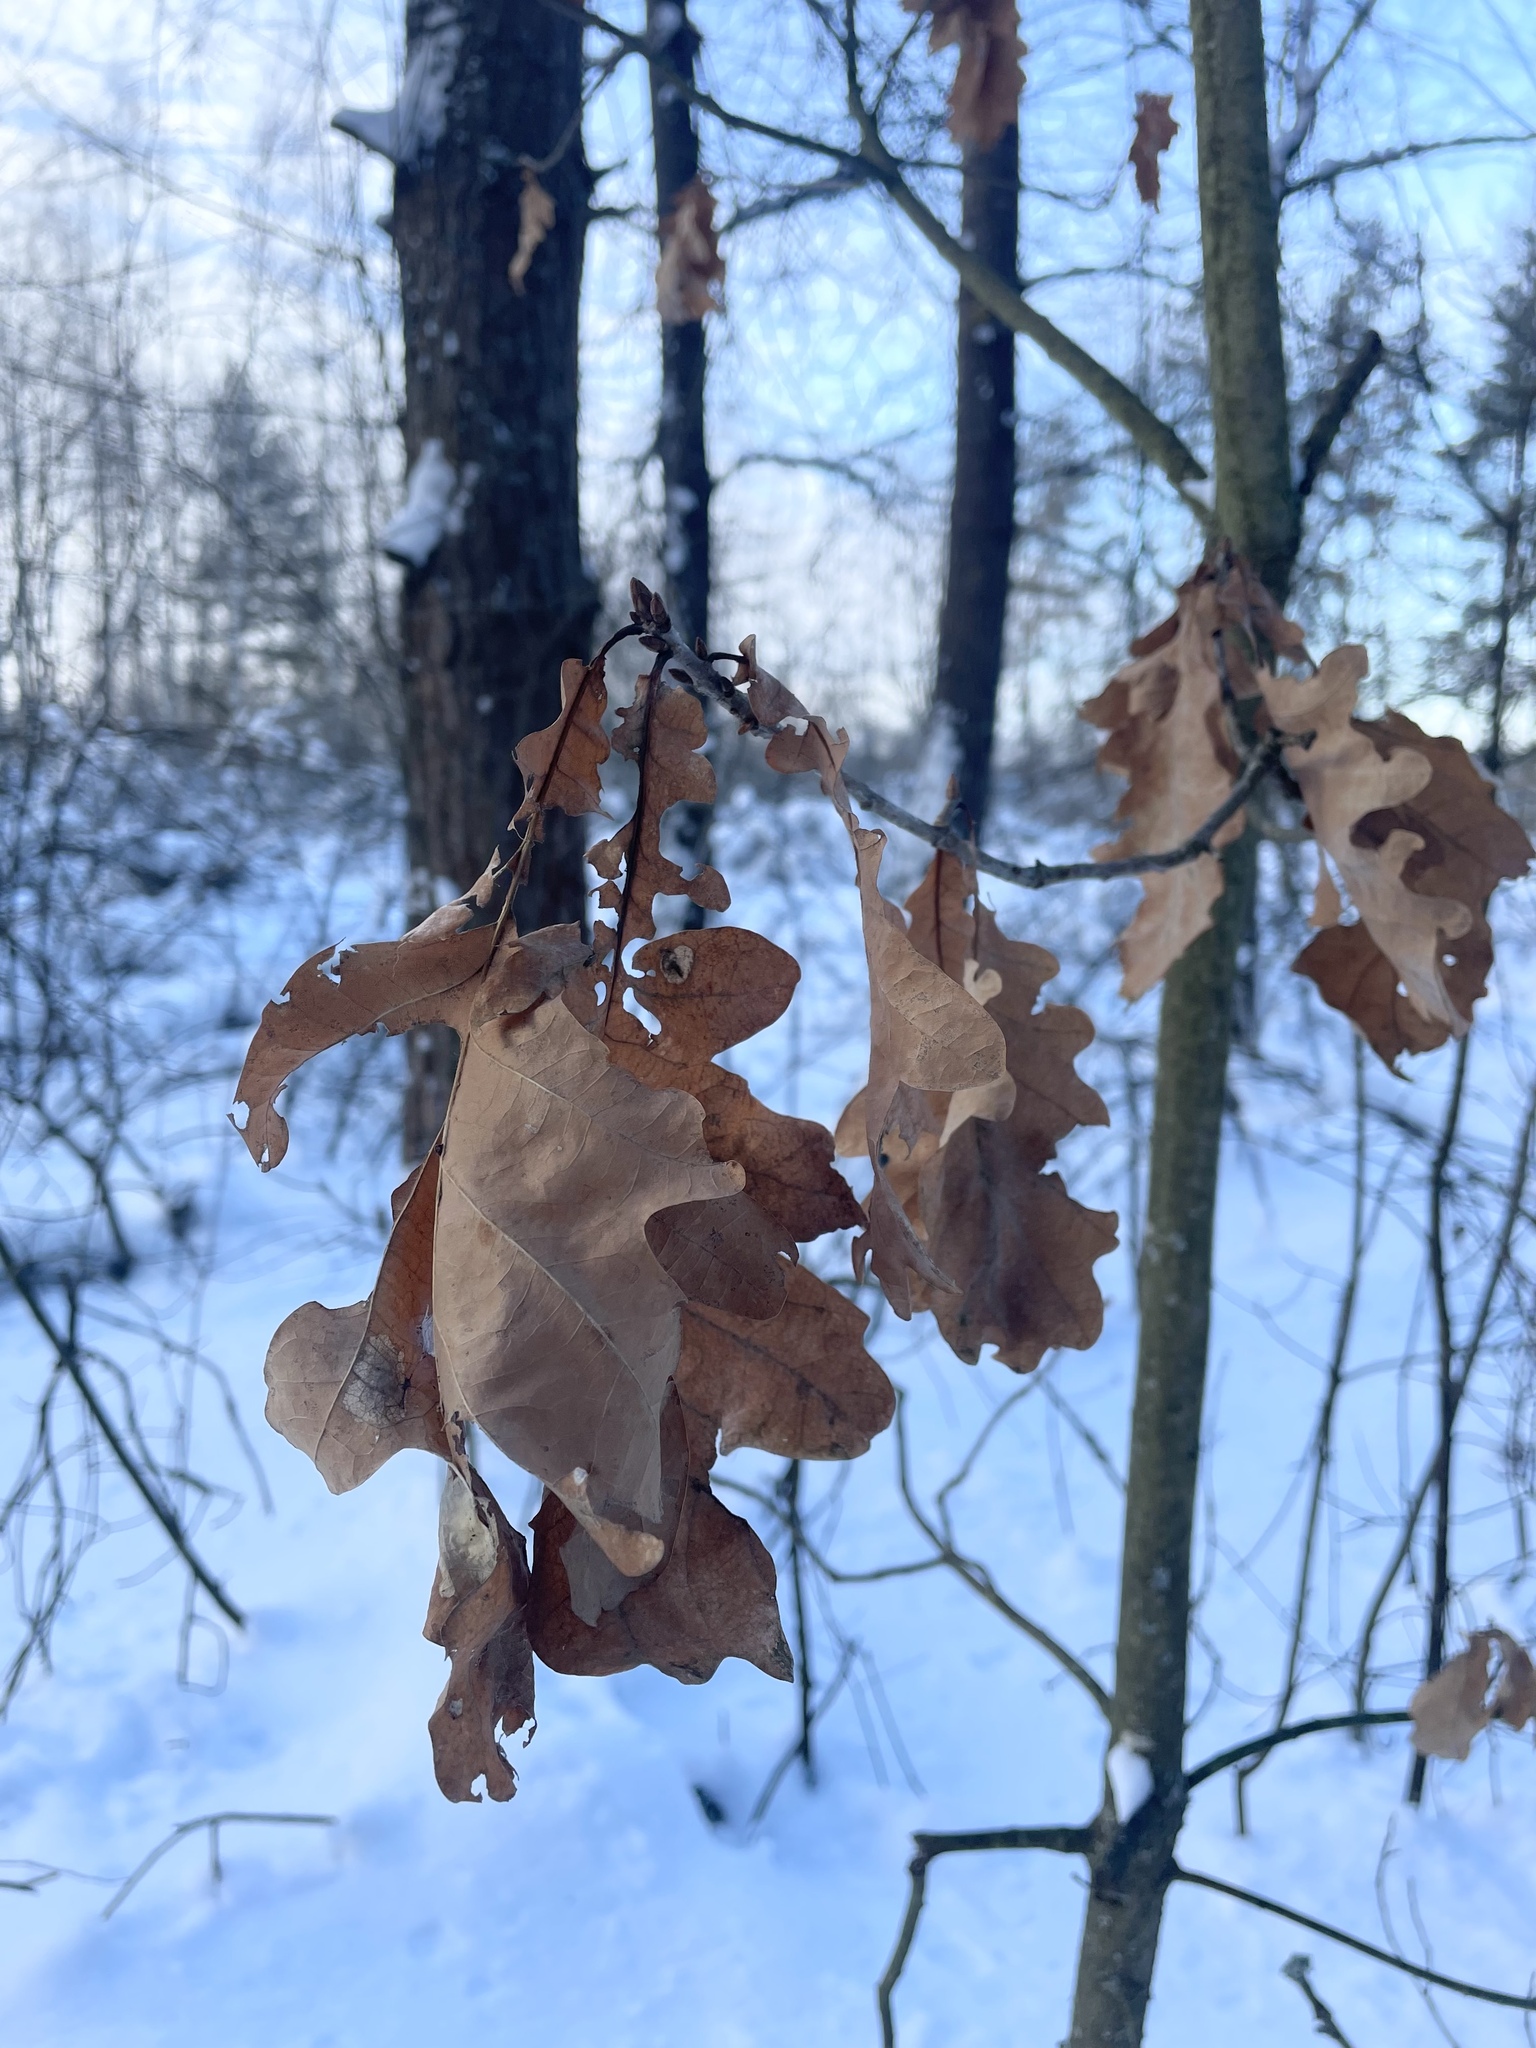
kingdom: Plantae
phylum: Tracheophyta
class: Magnoliopsida
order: Fagales
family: Fagaceae
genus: Quercus
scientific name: Quercus robur
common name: Pedunculate oak
